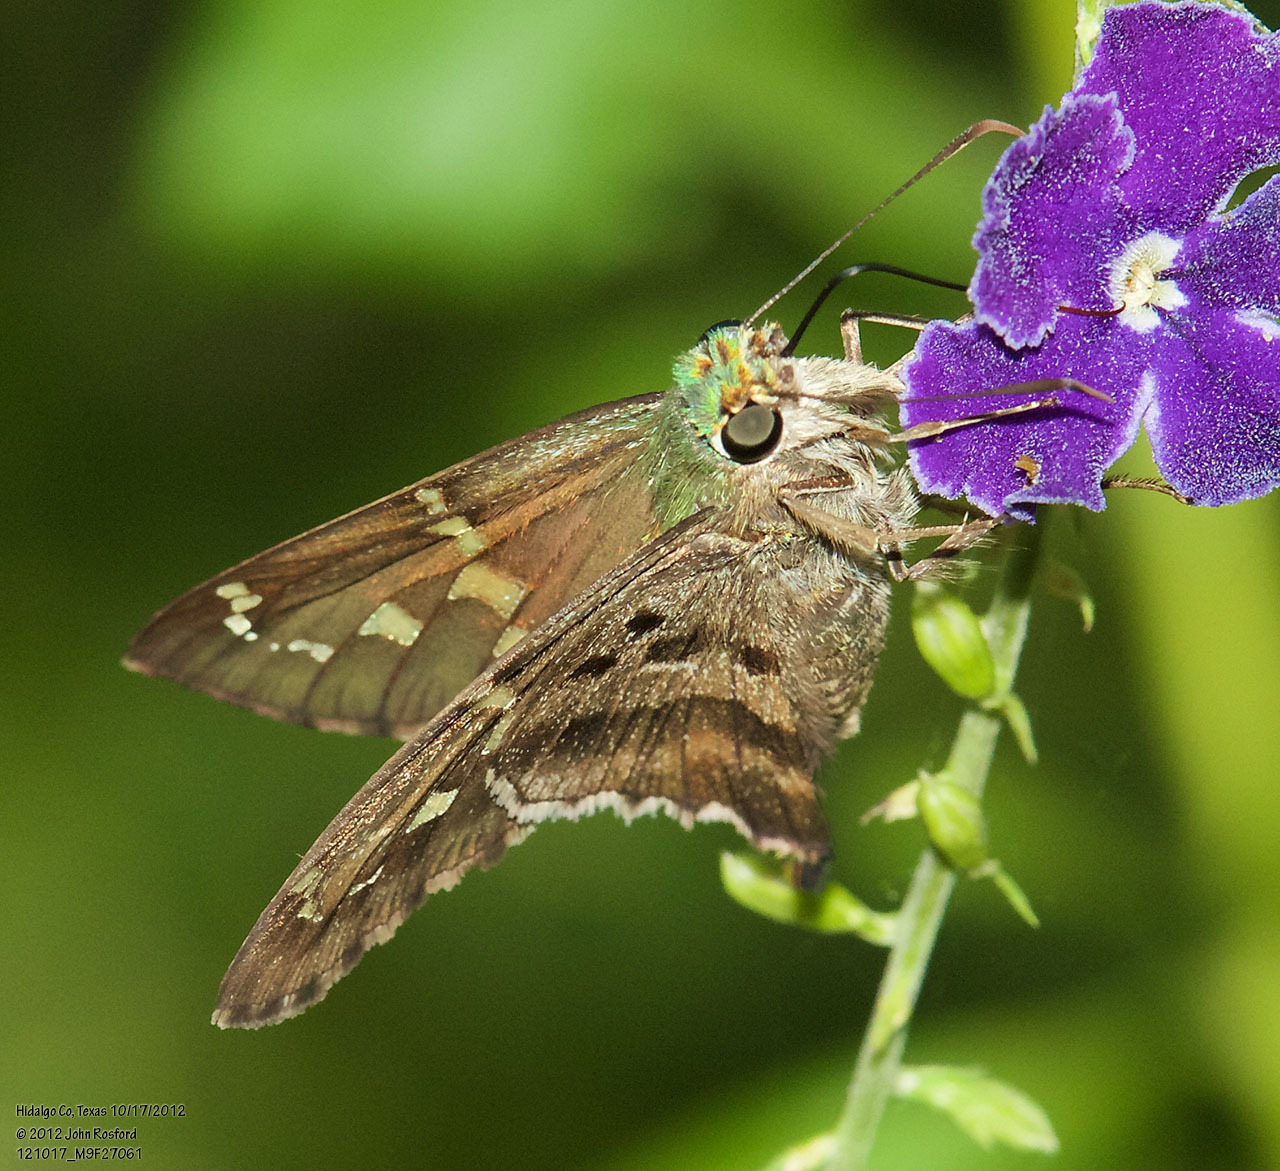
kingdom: Animalia
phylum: Arthropoda
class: Insecta
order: Lepidoptera
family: Hesperiidae
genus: Urbanus
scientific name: Urbanus proteus
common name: Long-tailed skipper
